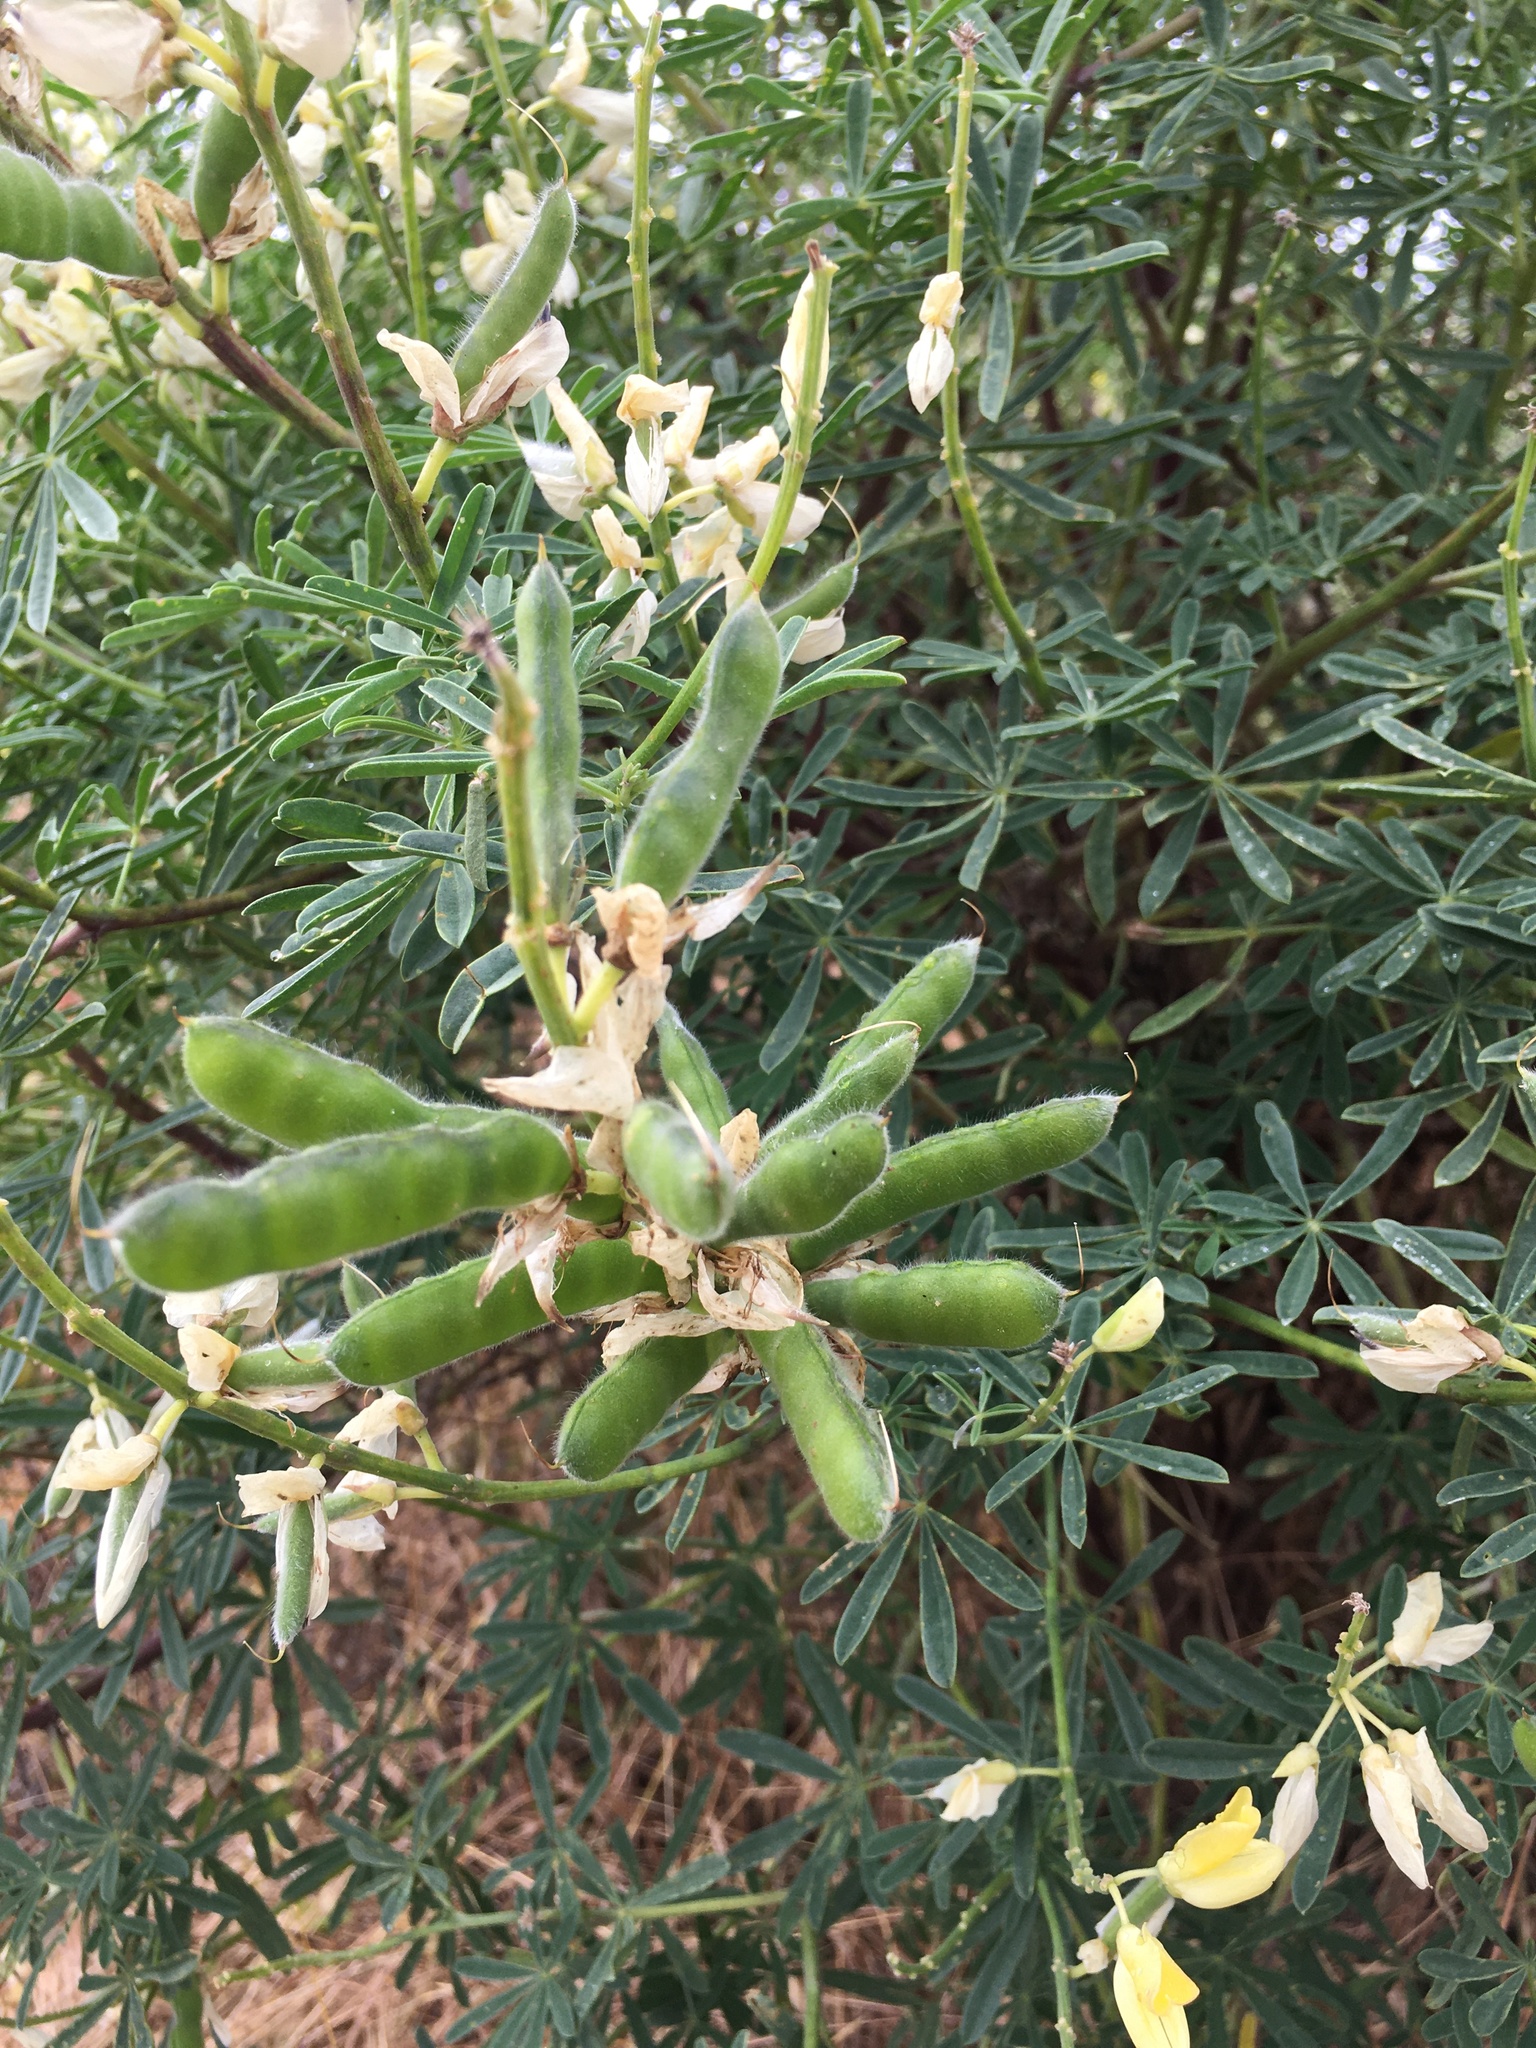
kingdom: Plantae
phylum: Tracheophyta
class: Magnoliopsida
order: Fabales
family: Fabaceae
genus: Lupinus
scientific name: Lupinus arboreus
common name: Yellow bush lupine
